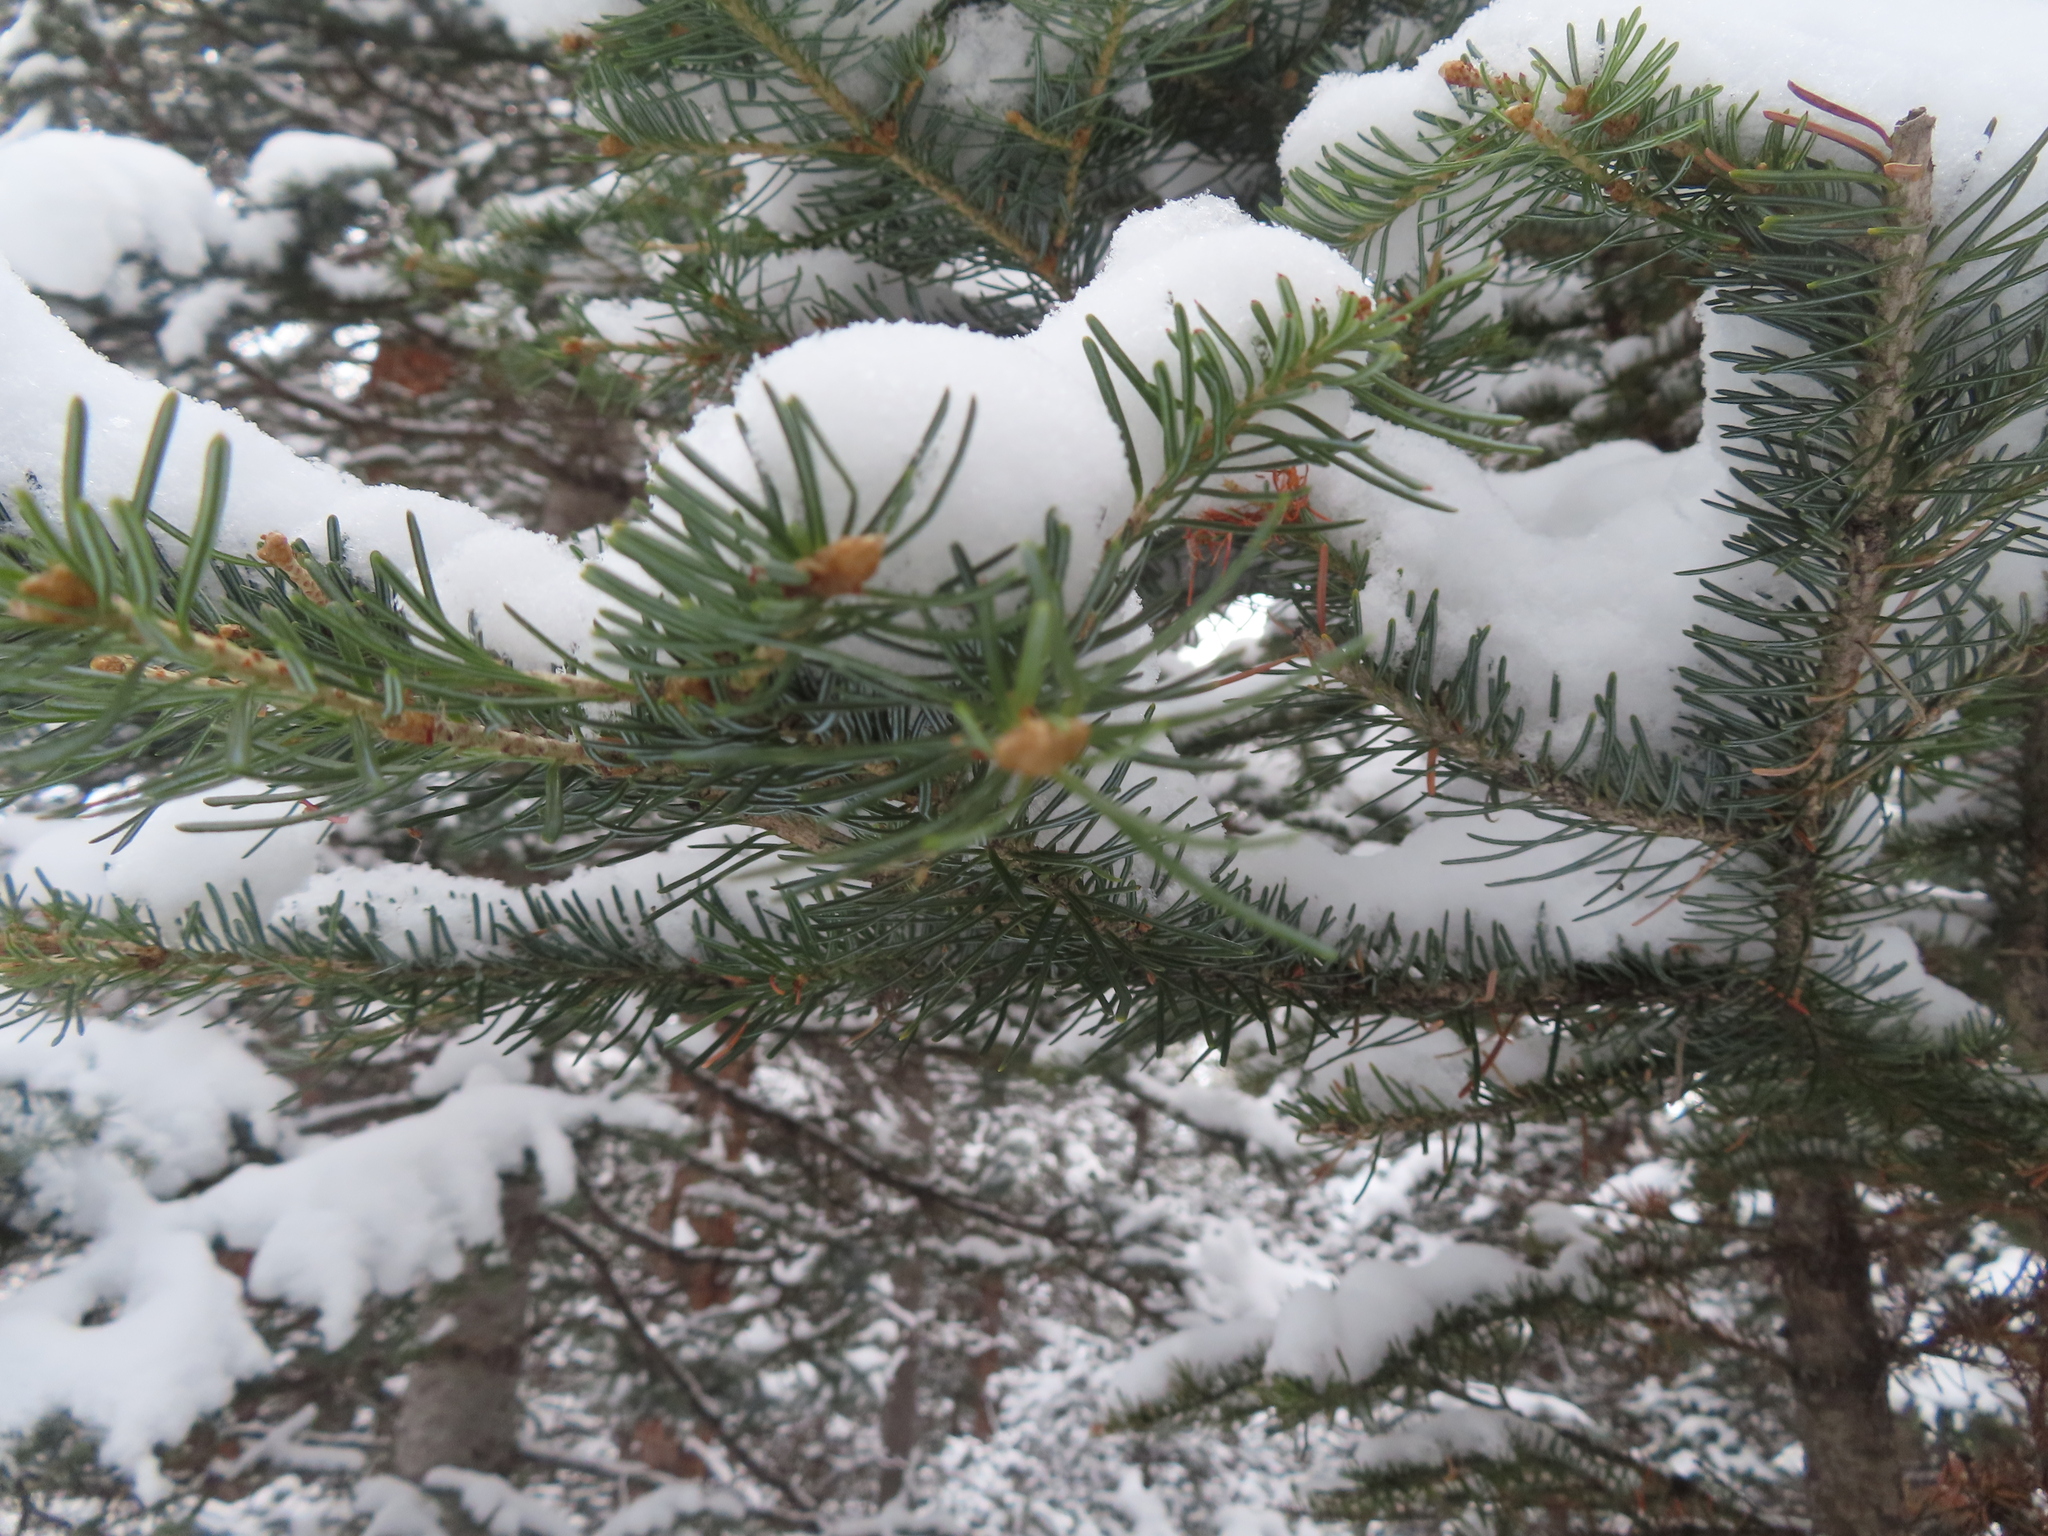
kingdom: Plantae
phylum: Tracheophyta
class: Pinopsida
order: Pinales
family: Pinaceae
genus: Abies
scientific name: Abies lasiocarpa
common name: Subalpine fir
